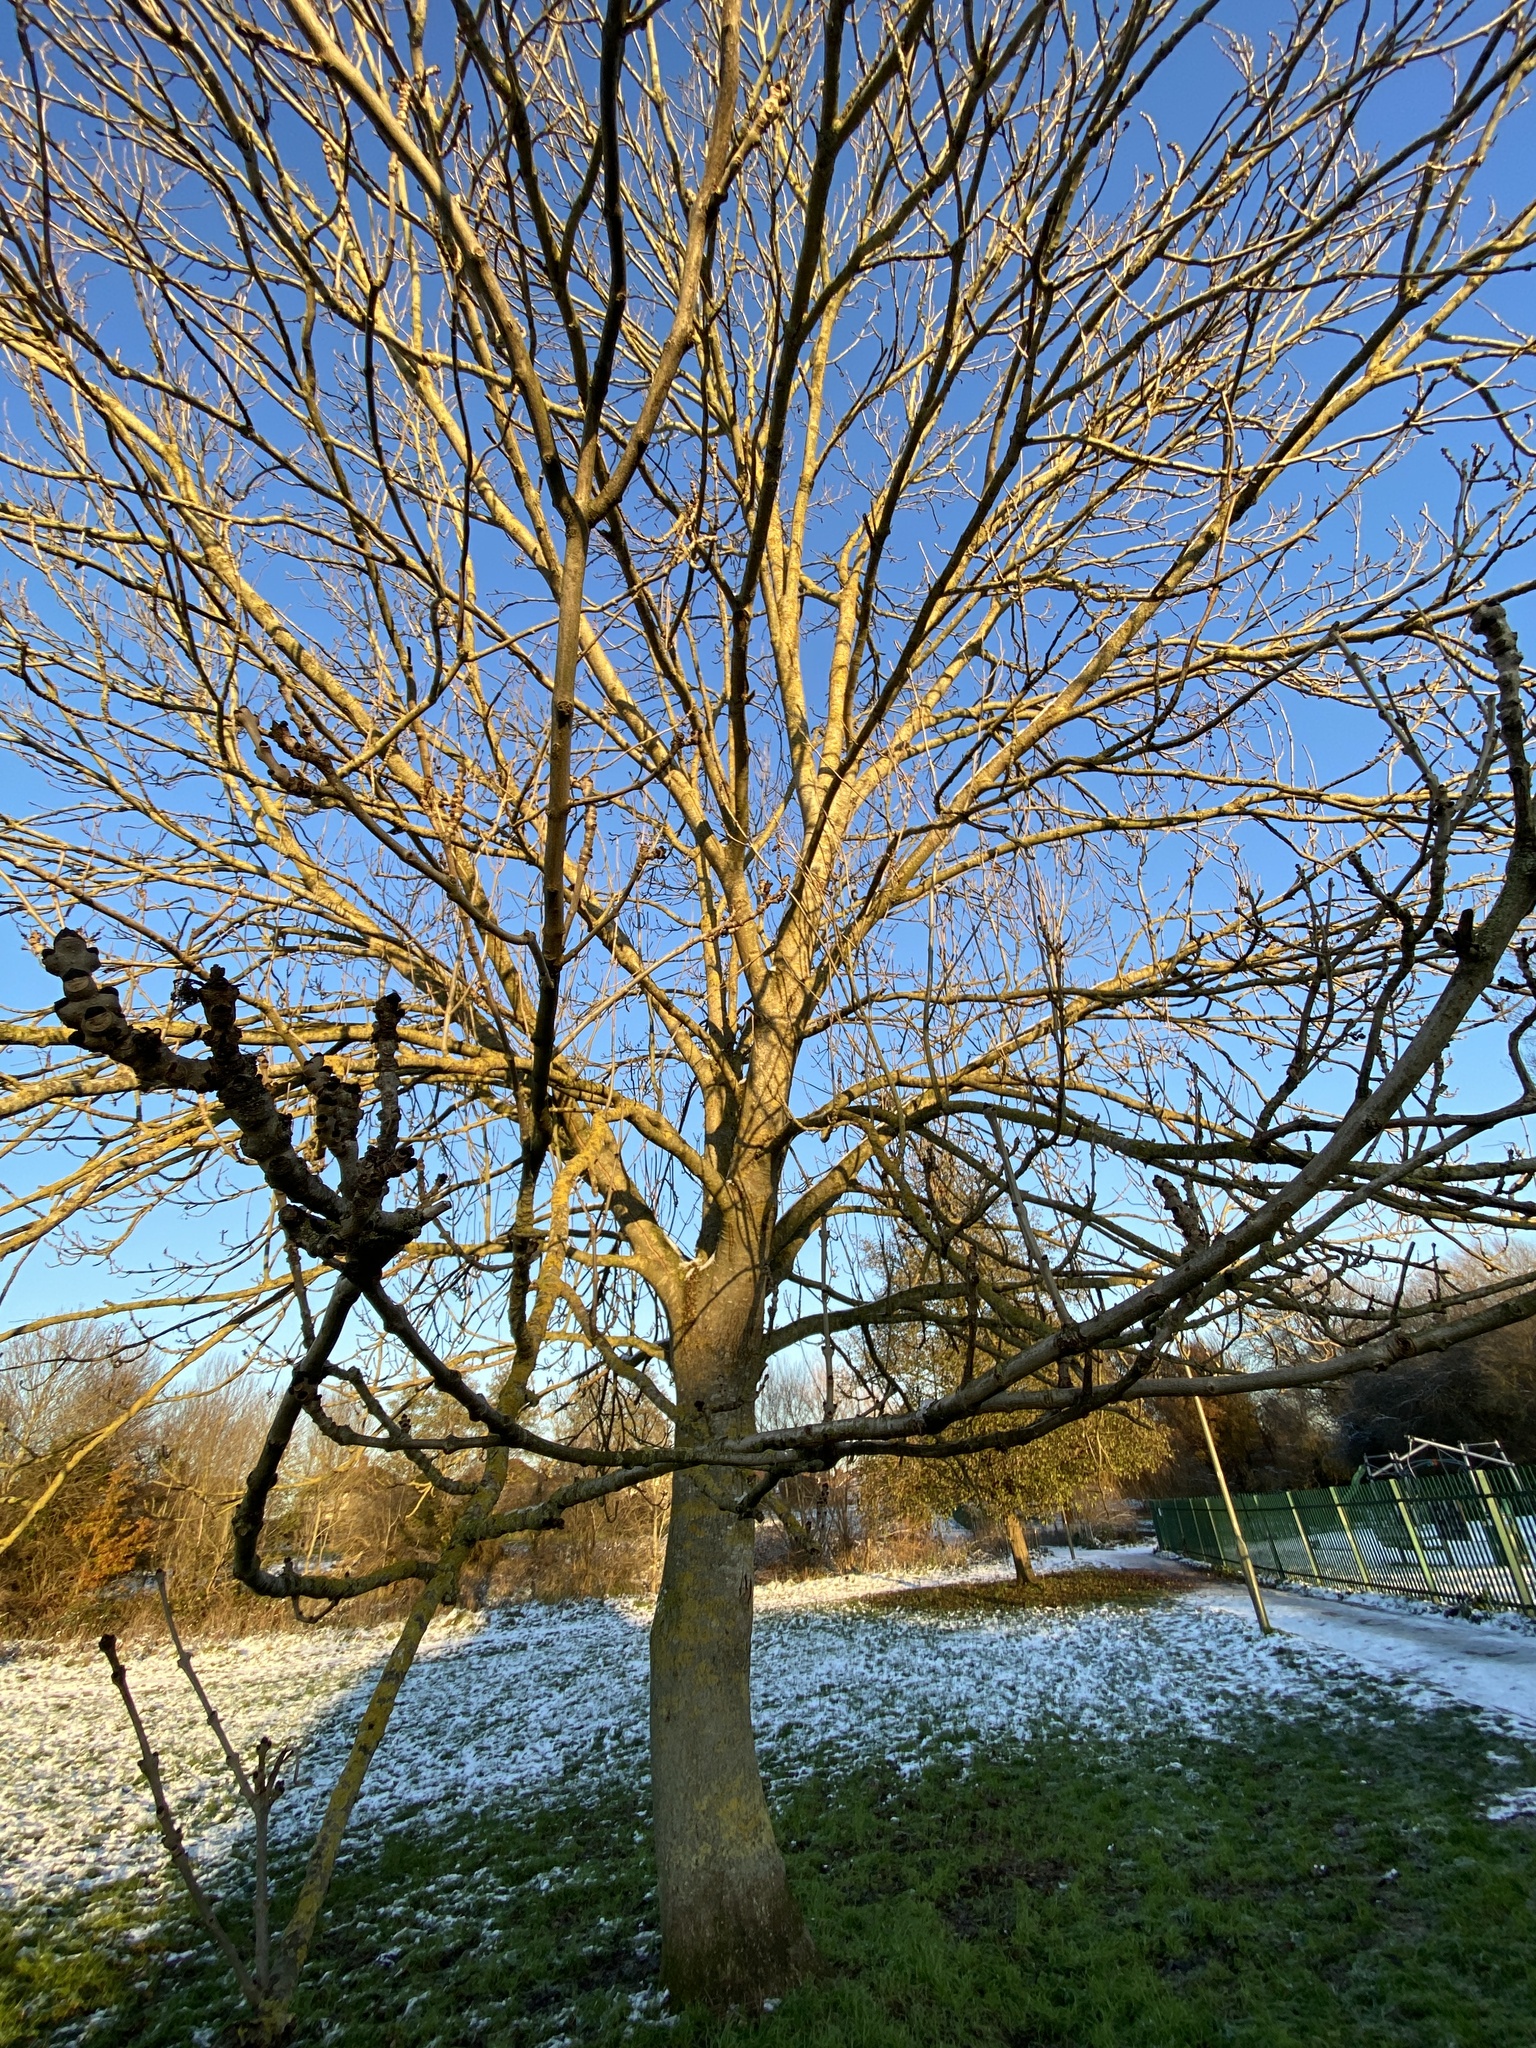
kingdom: Plantae
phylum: Tracheophyta
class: Magnoliopsida
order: Lamiales
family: Oleaceae
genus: Fraxinus
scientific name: Fraxinus excelsior
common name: European ash
